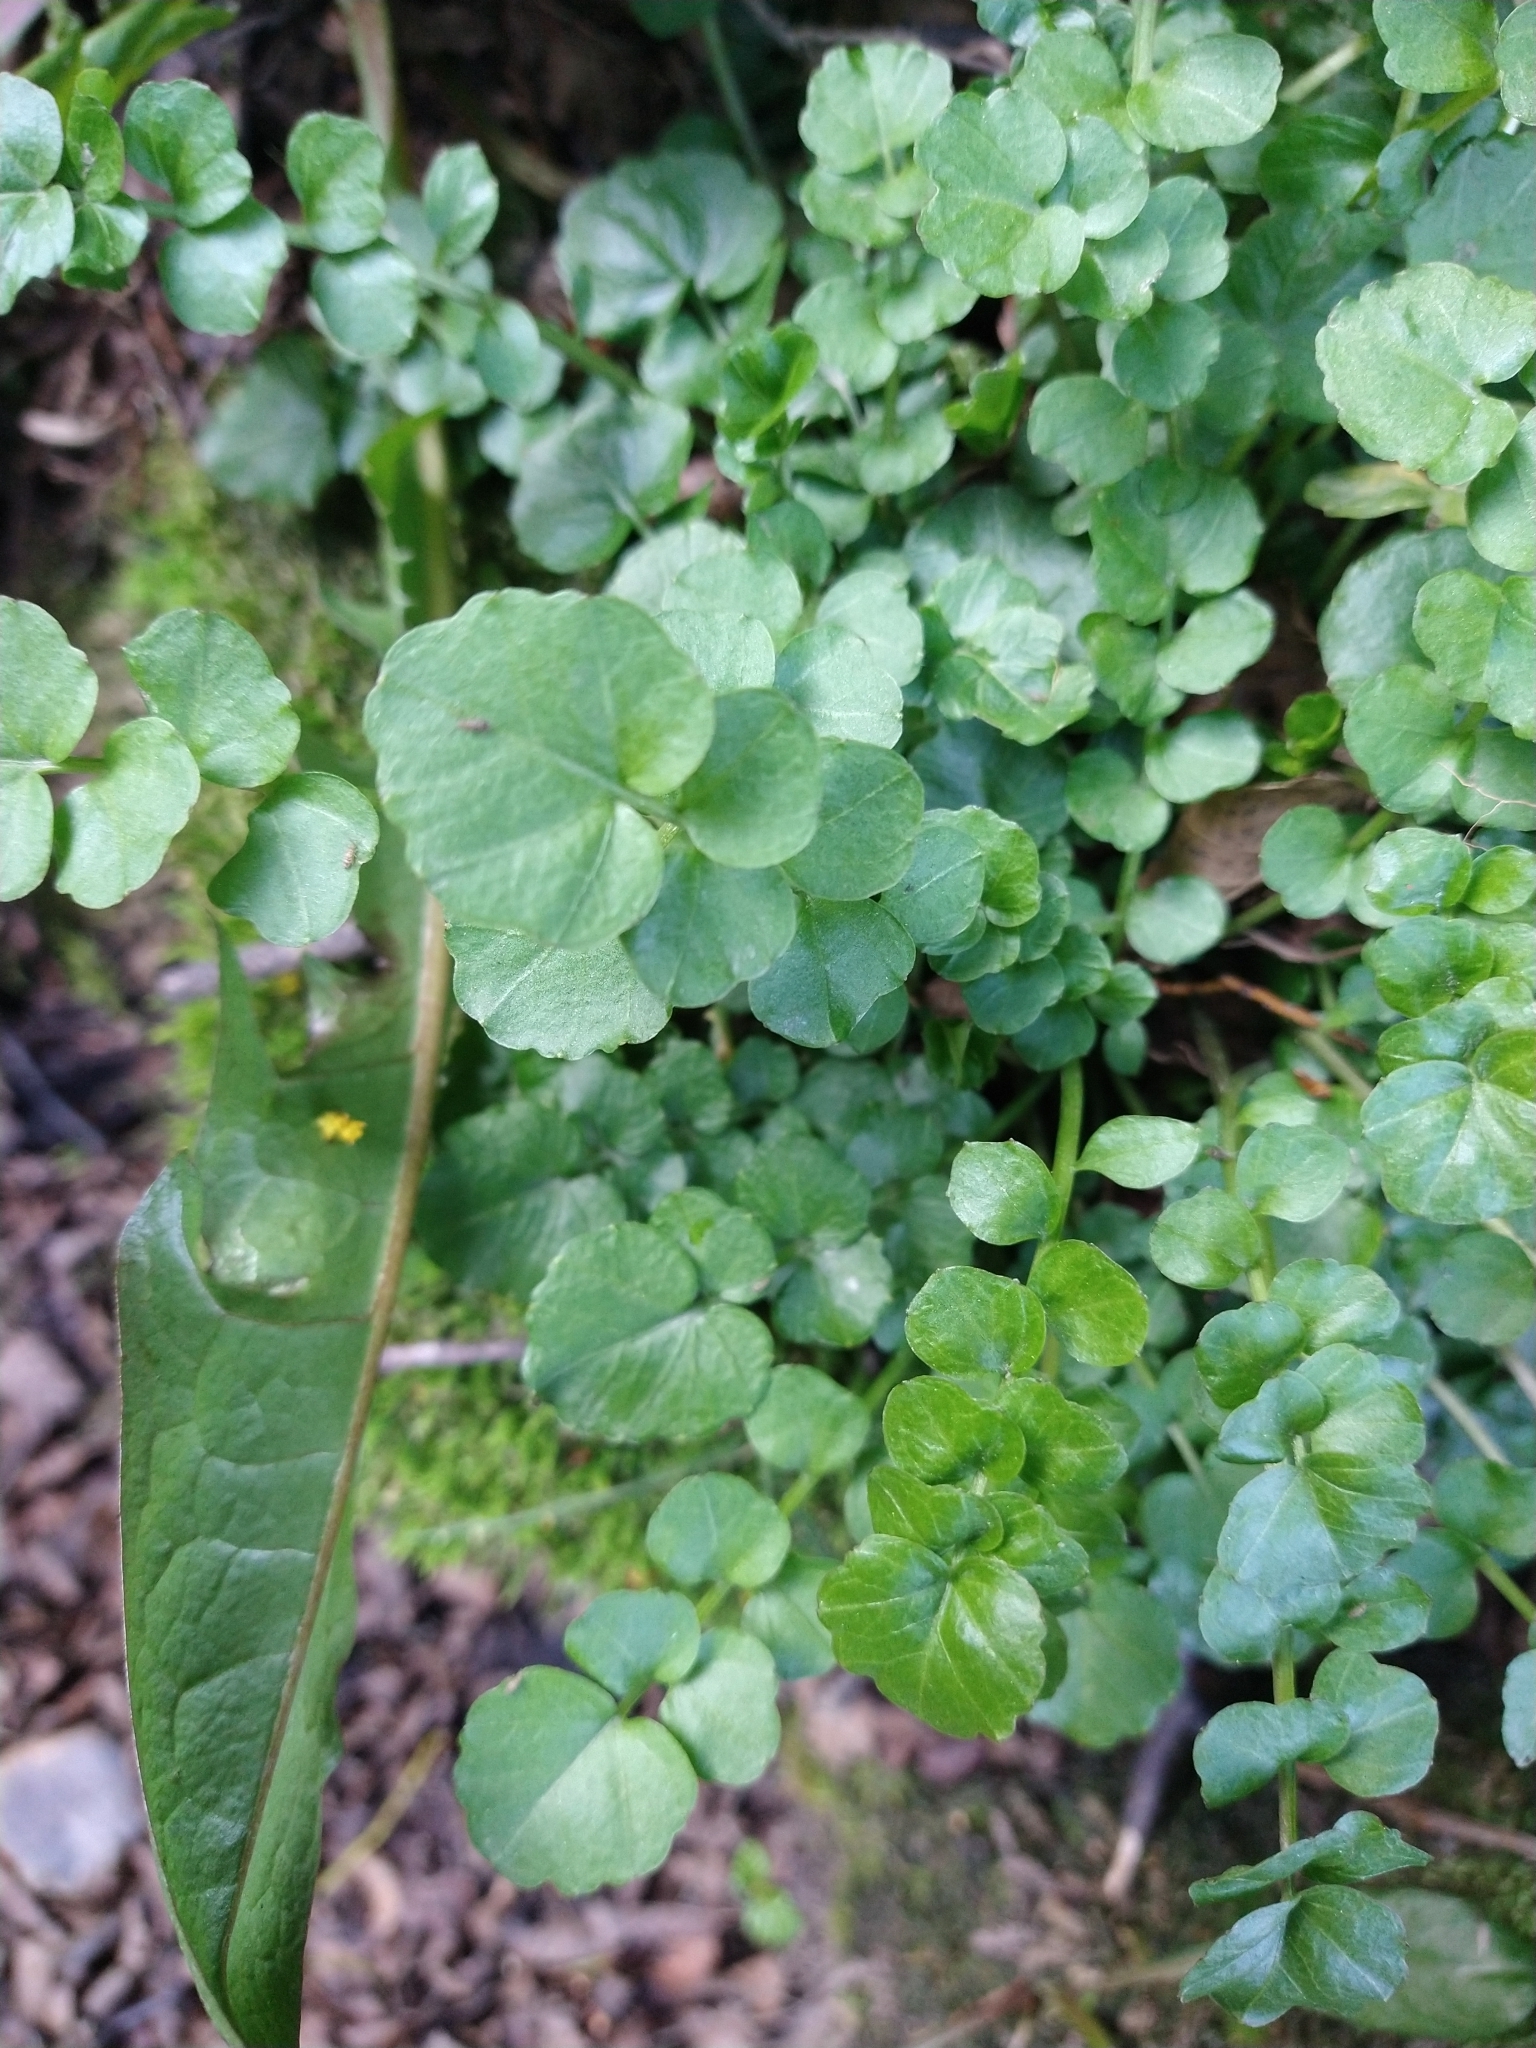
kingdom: Plantae
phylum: Tracheophyta
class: Magnoliopsida
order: Brassicales
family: Brassicaceae
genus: Cardamine
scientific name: Cardamine glacialis
